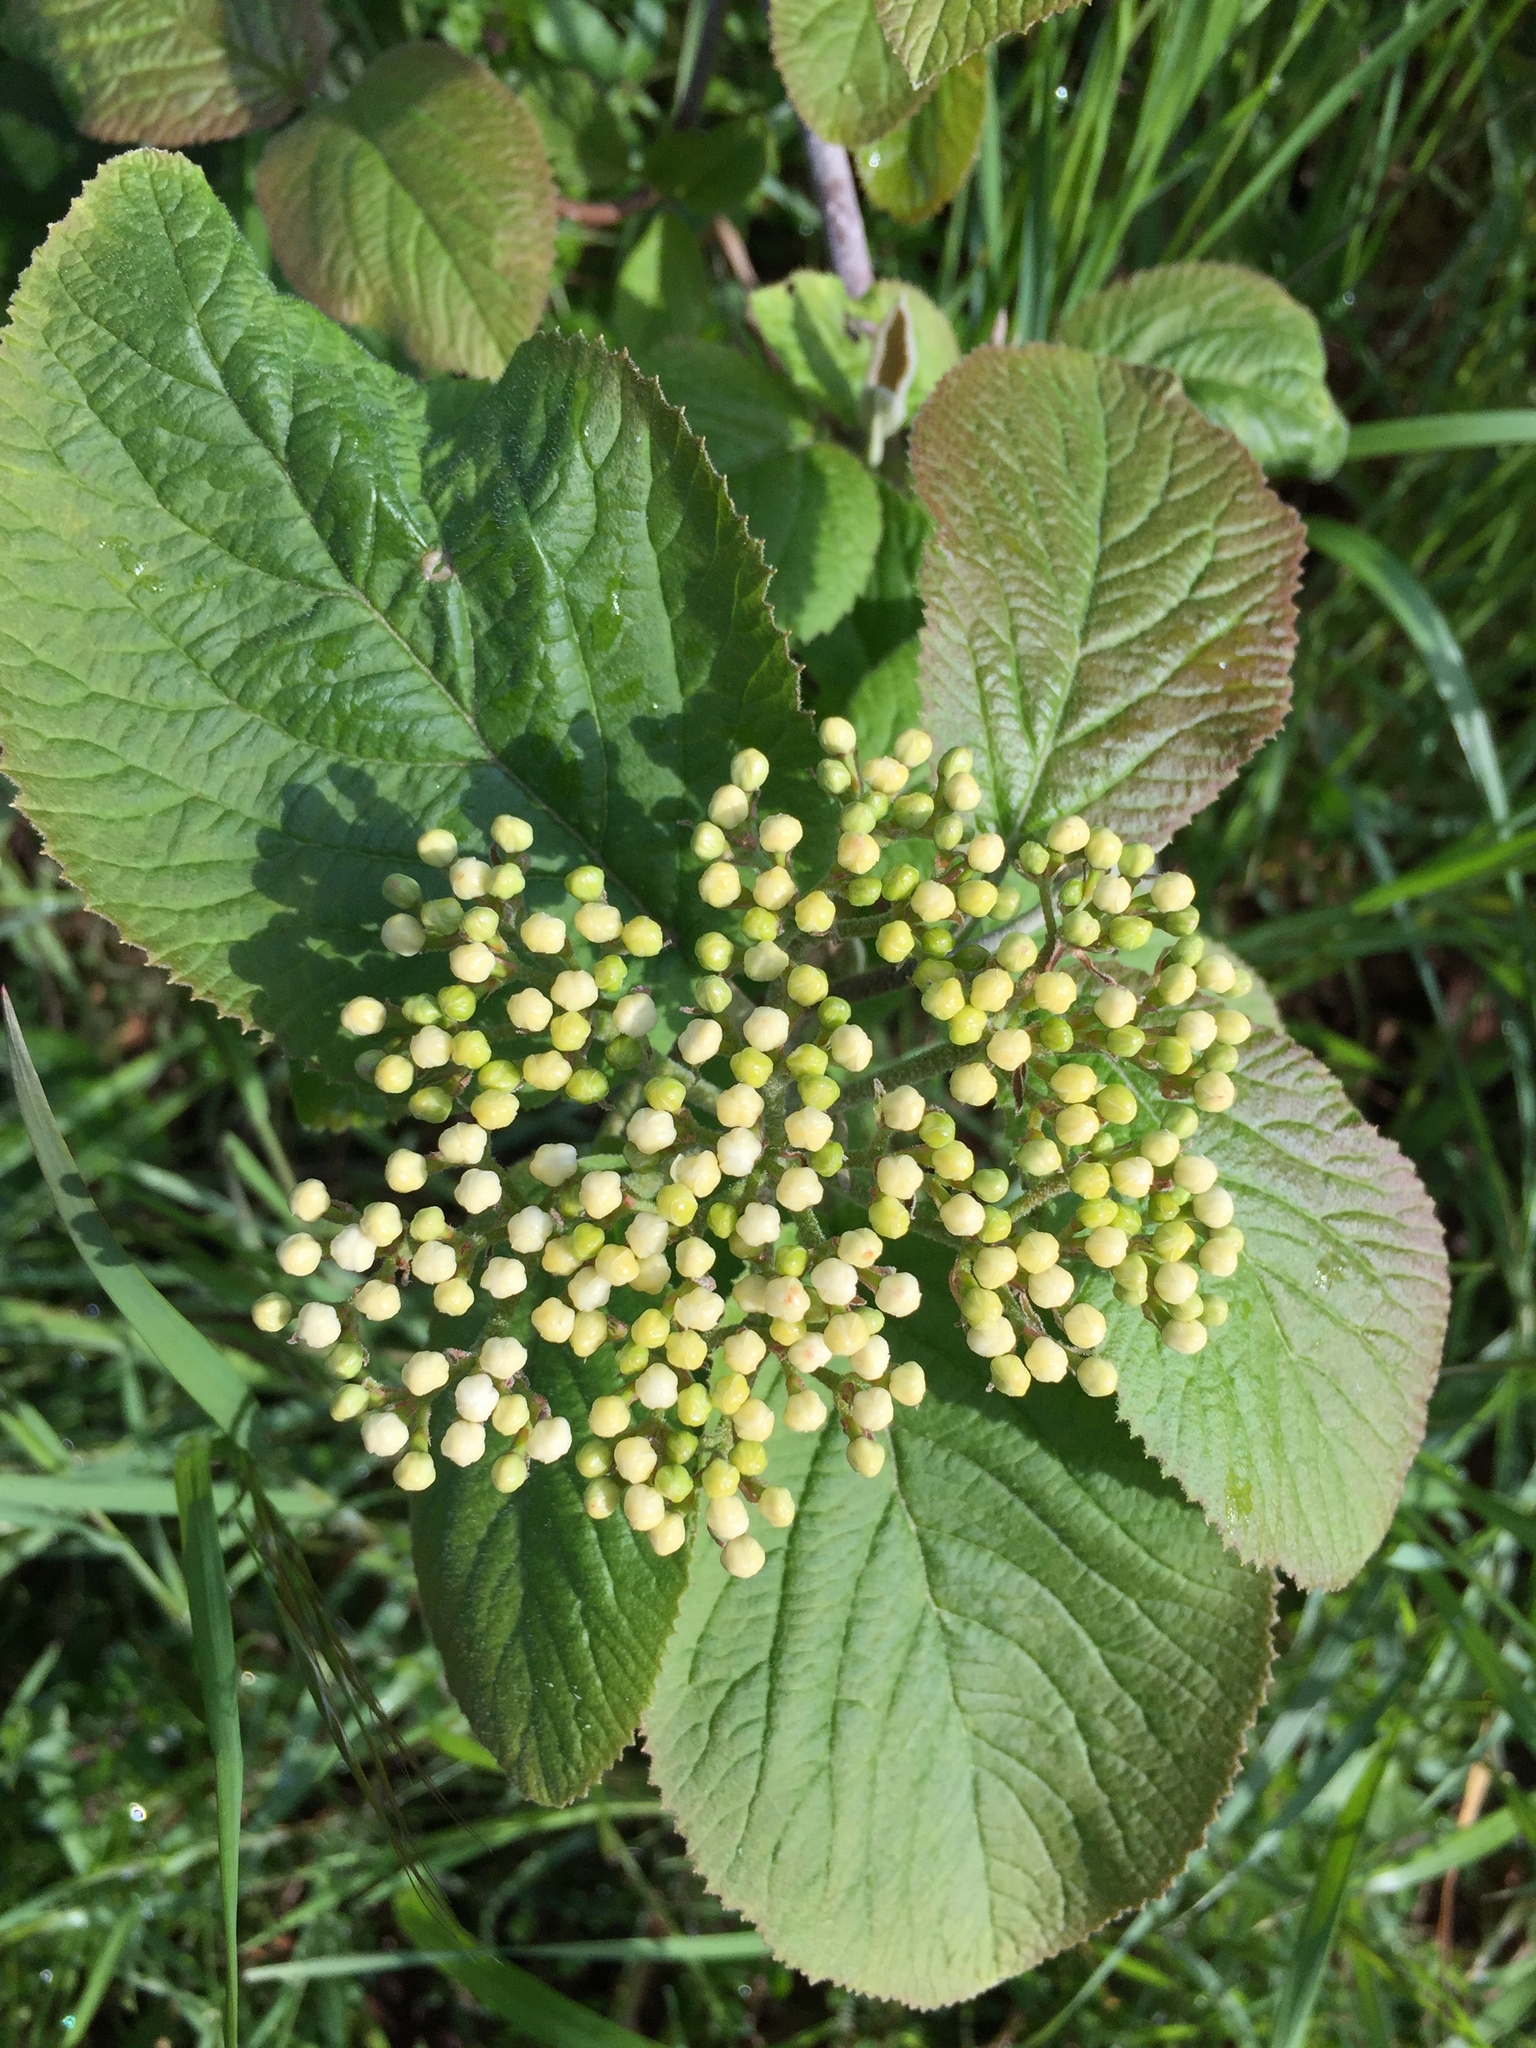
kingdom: Plantae
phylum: Tracheophyta
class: Magnoliopsida
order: Dipsacales
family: Viburnaceae
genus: Viburnum
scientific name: Viburnum lantana
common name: Wayfaring tree
